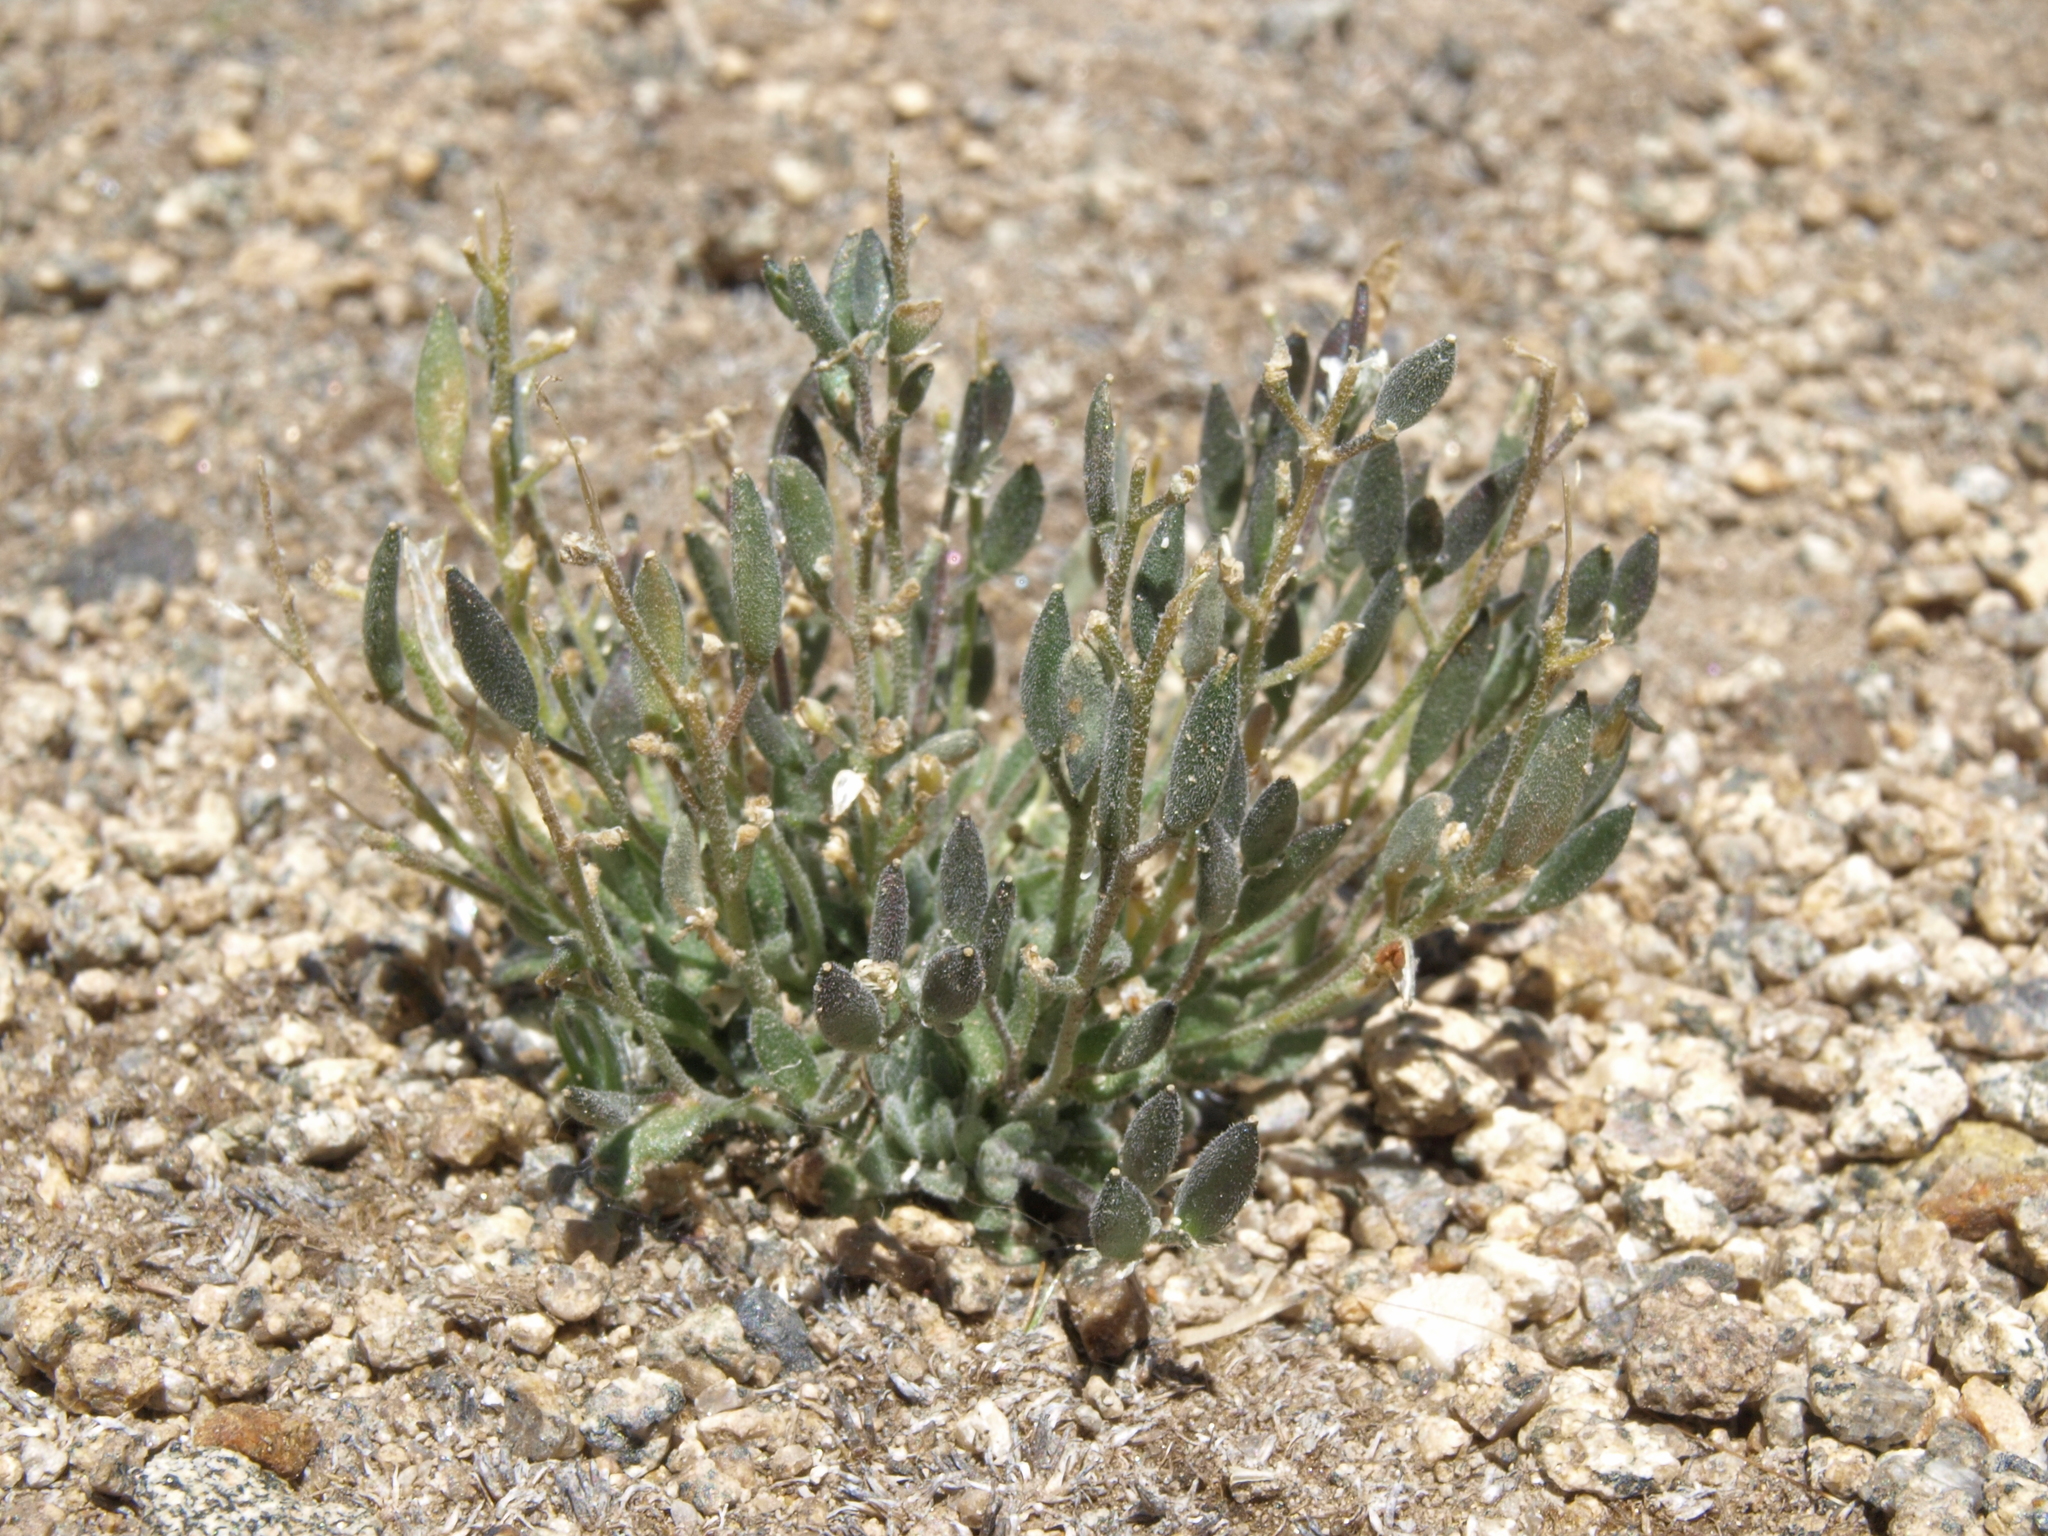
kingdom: Plantae
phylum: Tracheophyta
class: Magnoliopsida
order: Brassicales
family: Brassicaceae
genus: Draba
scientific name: Draba californica
